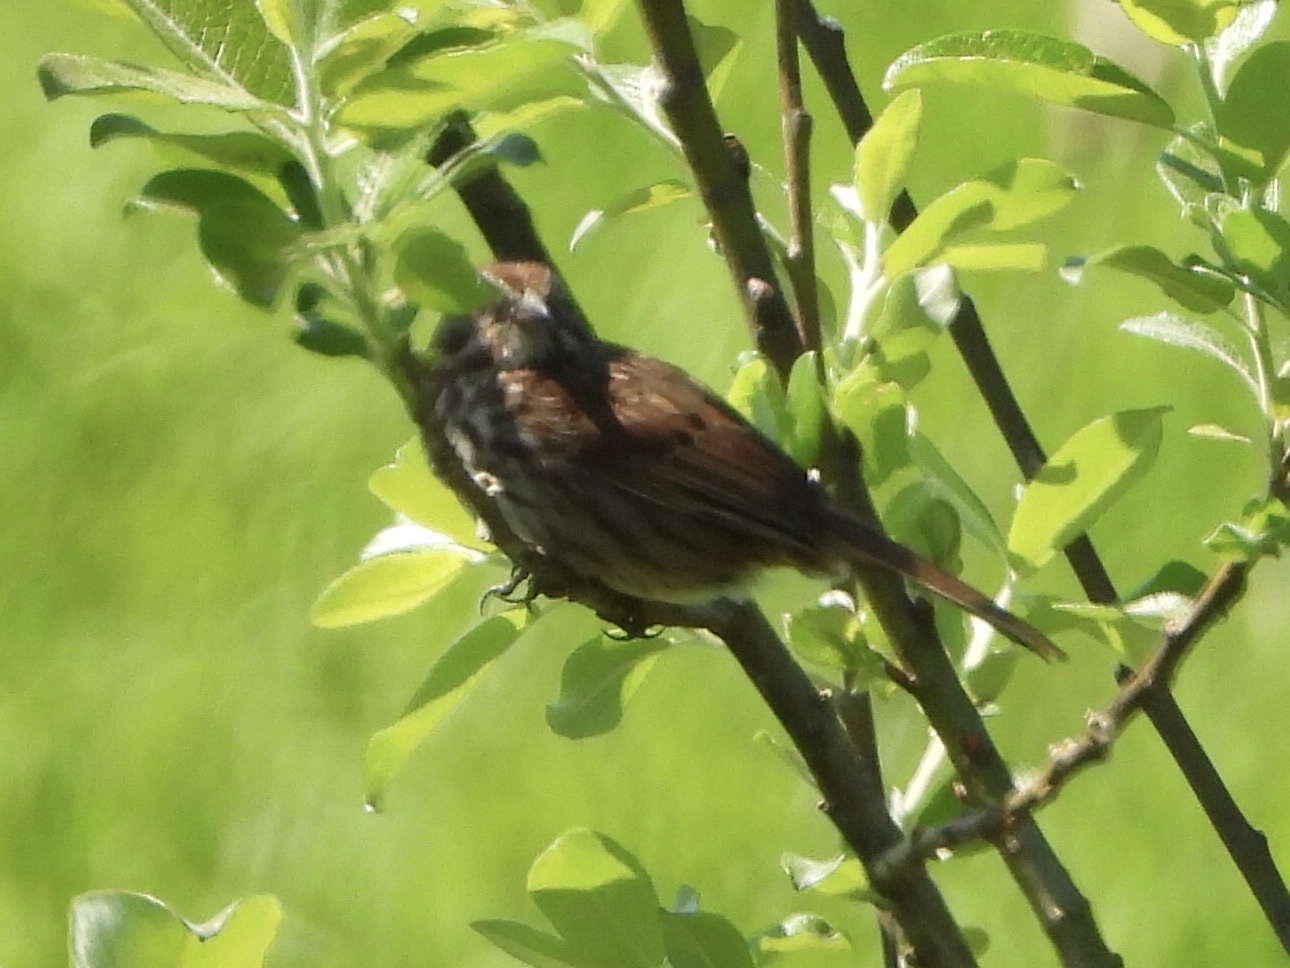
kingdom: Animalia
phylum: Chordata
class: Aves
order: Passeriformes
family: Passerellidae
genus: Melospiza
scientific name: Melospiza melodia
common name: Song sparrow
